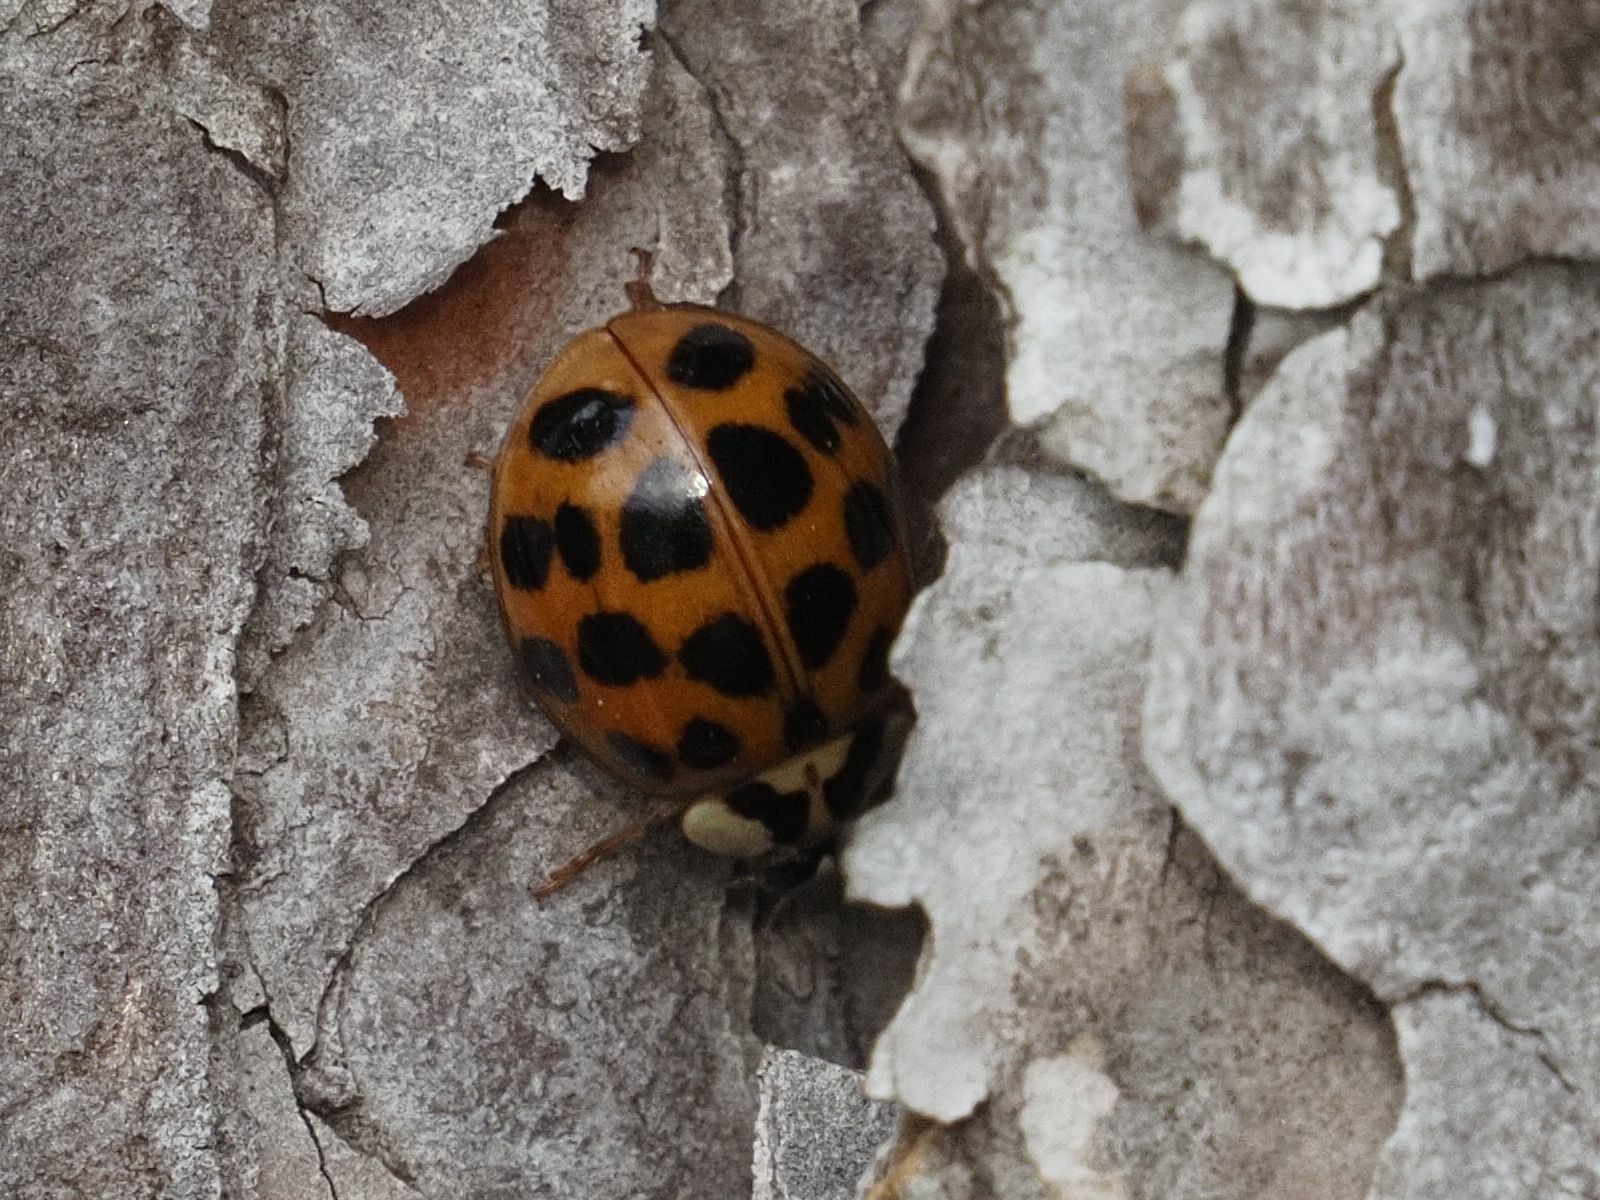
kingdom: Animalia
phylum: Arthropoda
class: Insecta
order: Coleoptera
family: Coccinellidae
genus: Harmonia
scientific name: Harmonia axyridis
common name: Harlequin ladybird
